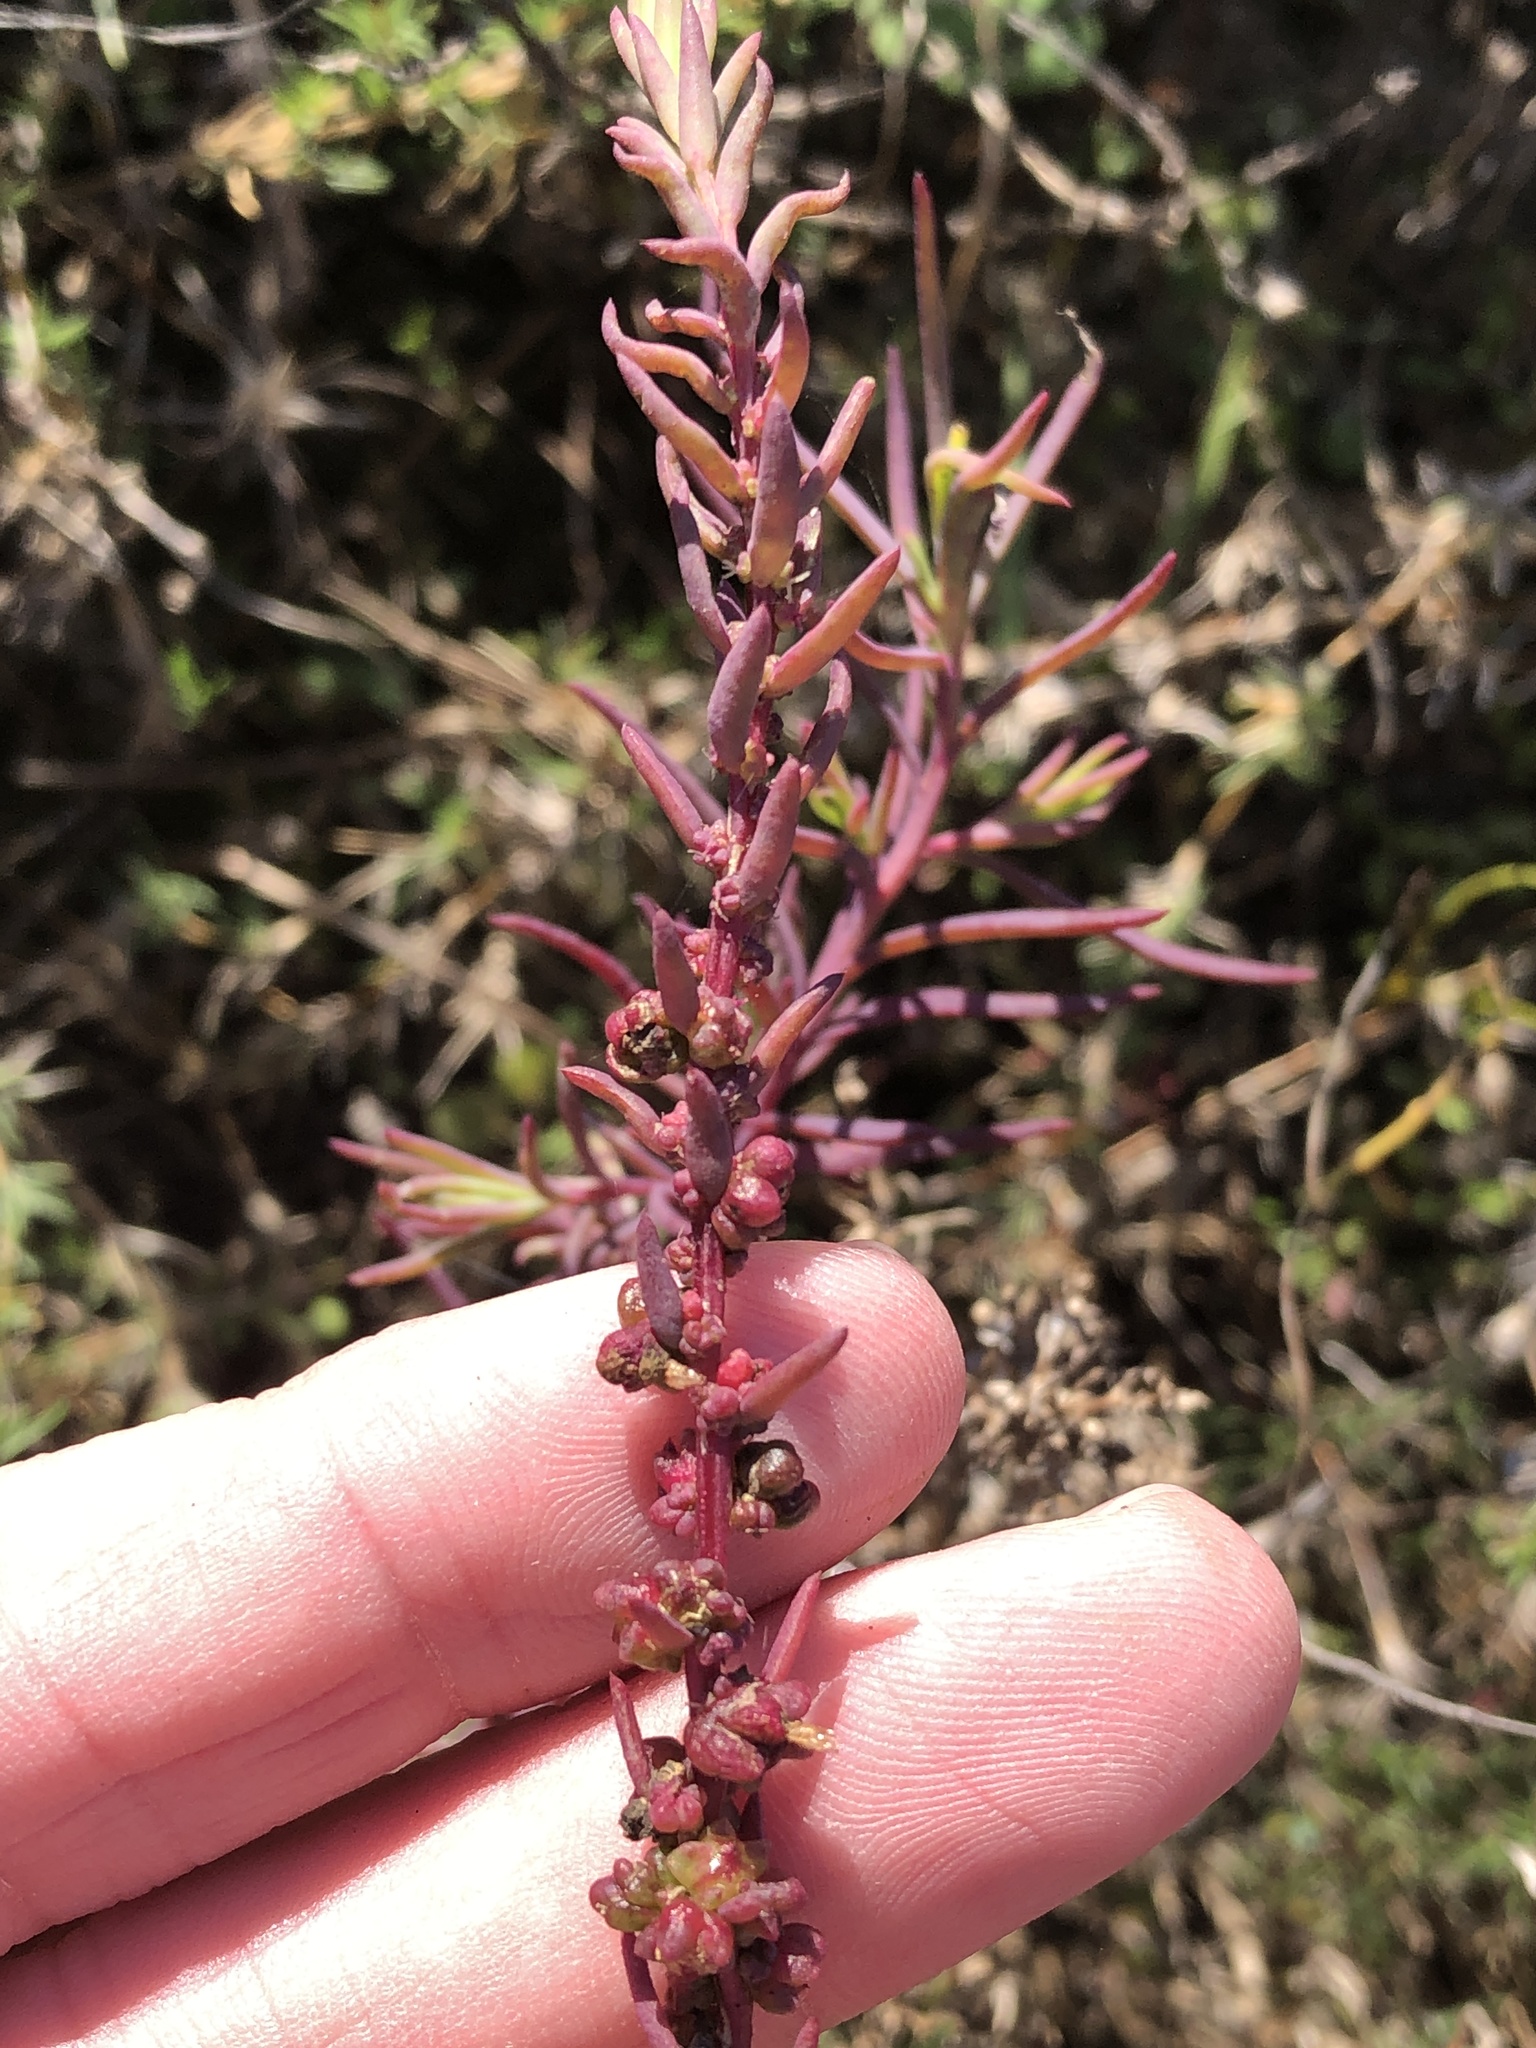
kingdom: Plantae
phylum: Tracheophyta
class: Magnoliopsida
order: Caryophyllales
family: Amaranthaceae
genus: Suaeda
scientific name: Suaeda linearis
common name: Annual seepweed
